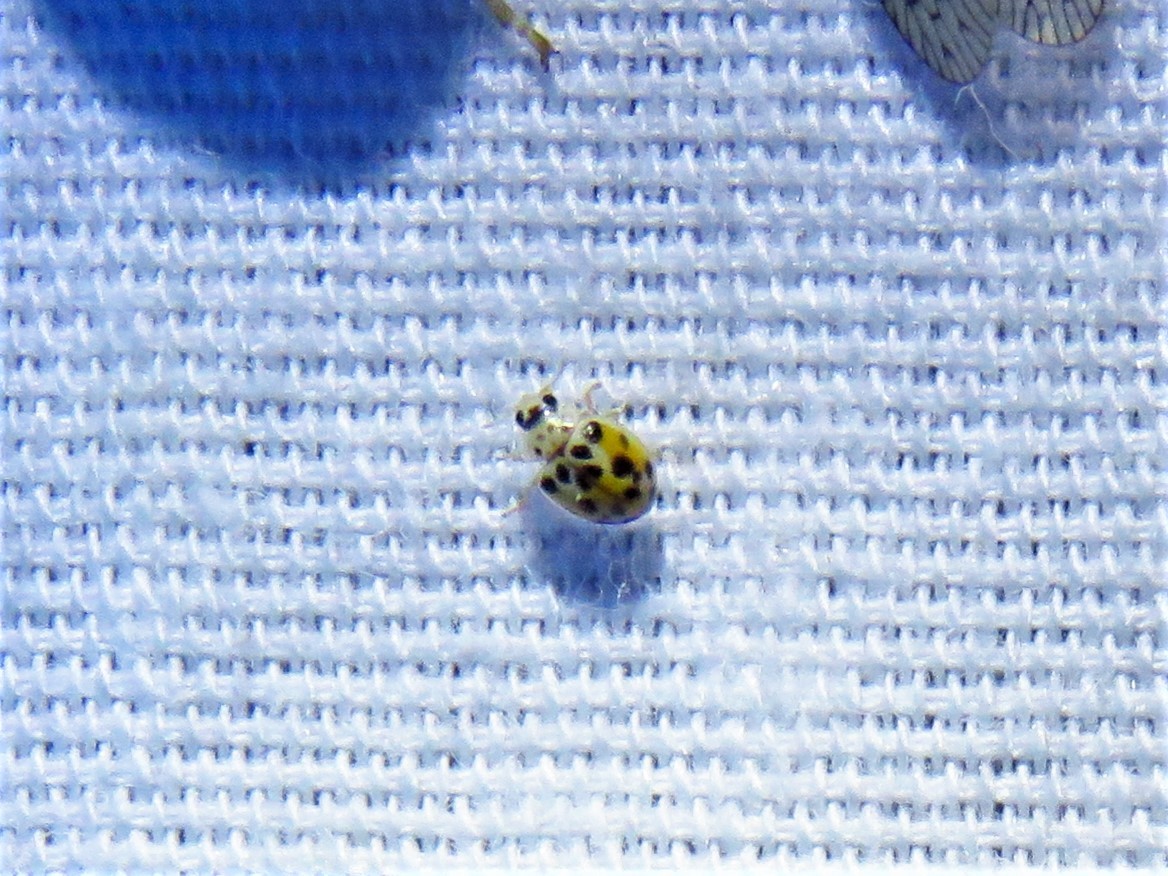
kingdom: Animalia
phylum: Arthropoda
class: Insecta
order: Coleoptera
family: Coccinellidae
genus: Psyllobora
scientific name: Psyllobora vigintimaculata
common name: Ladybird beetle
